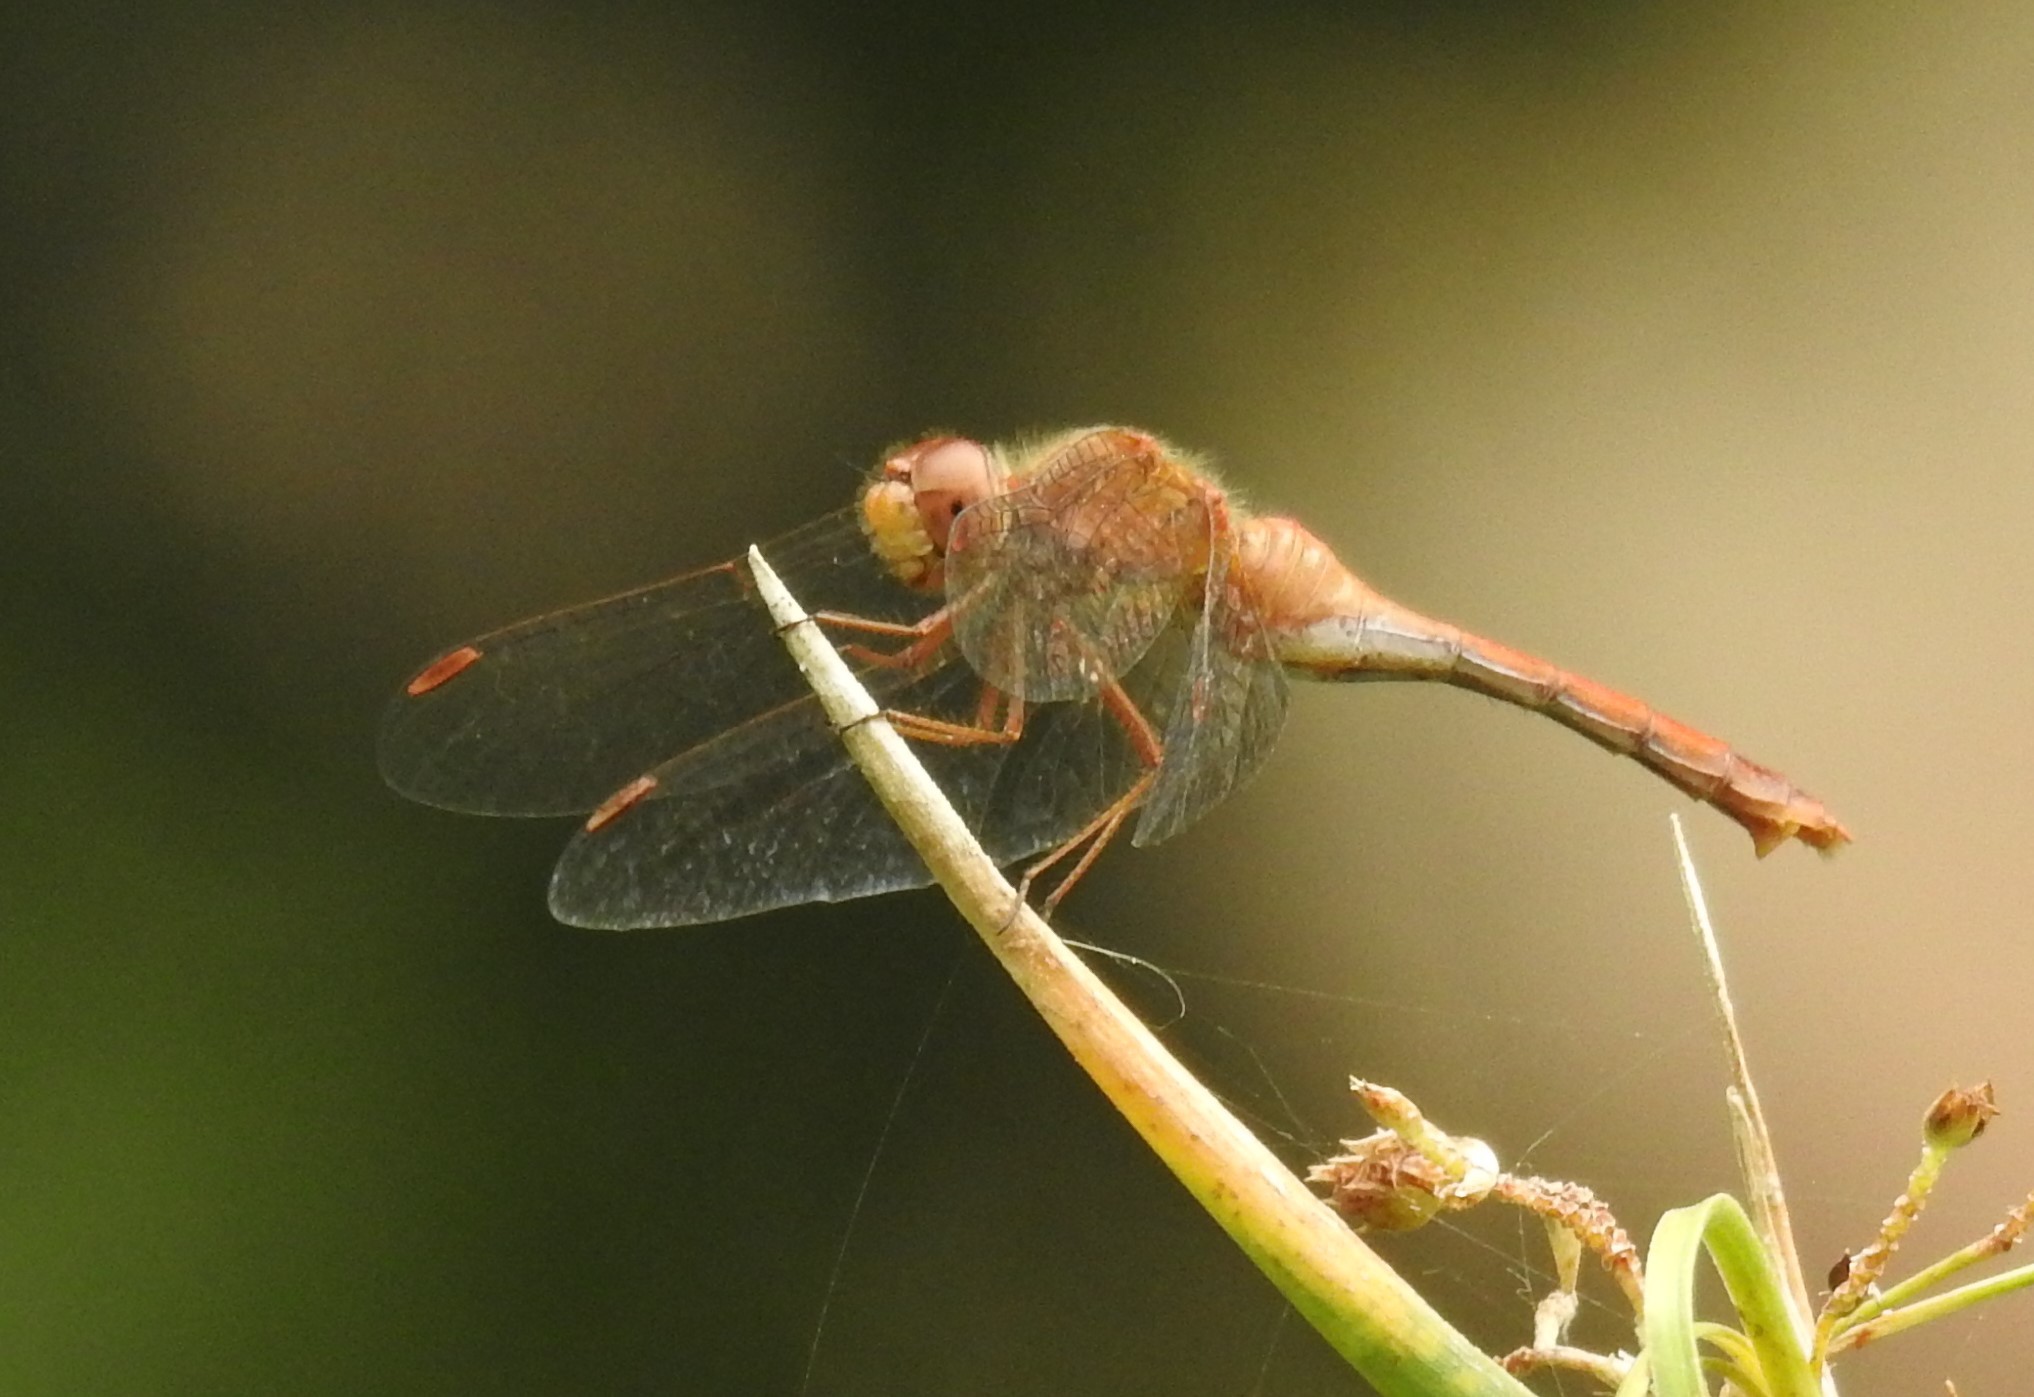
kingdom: Animalia
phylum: Arthropoda
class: Insecta
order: Odonata
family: Libellulidae
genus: Sympetrum
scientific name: Sympetrum vicinum
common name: Autumn meadowhawk
